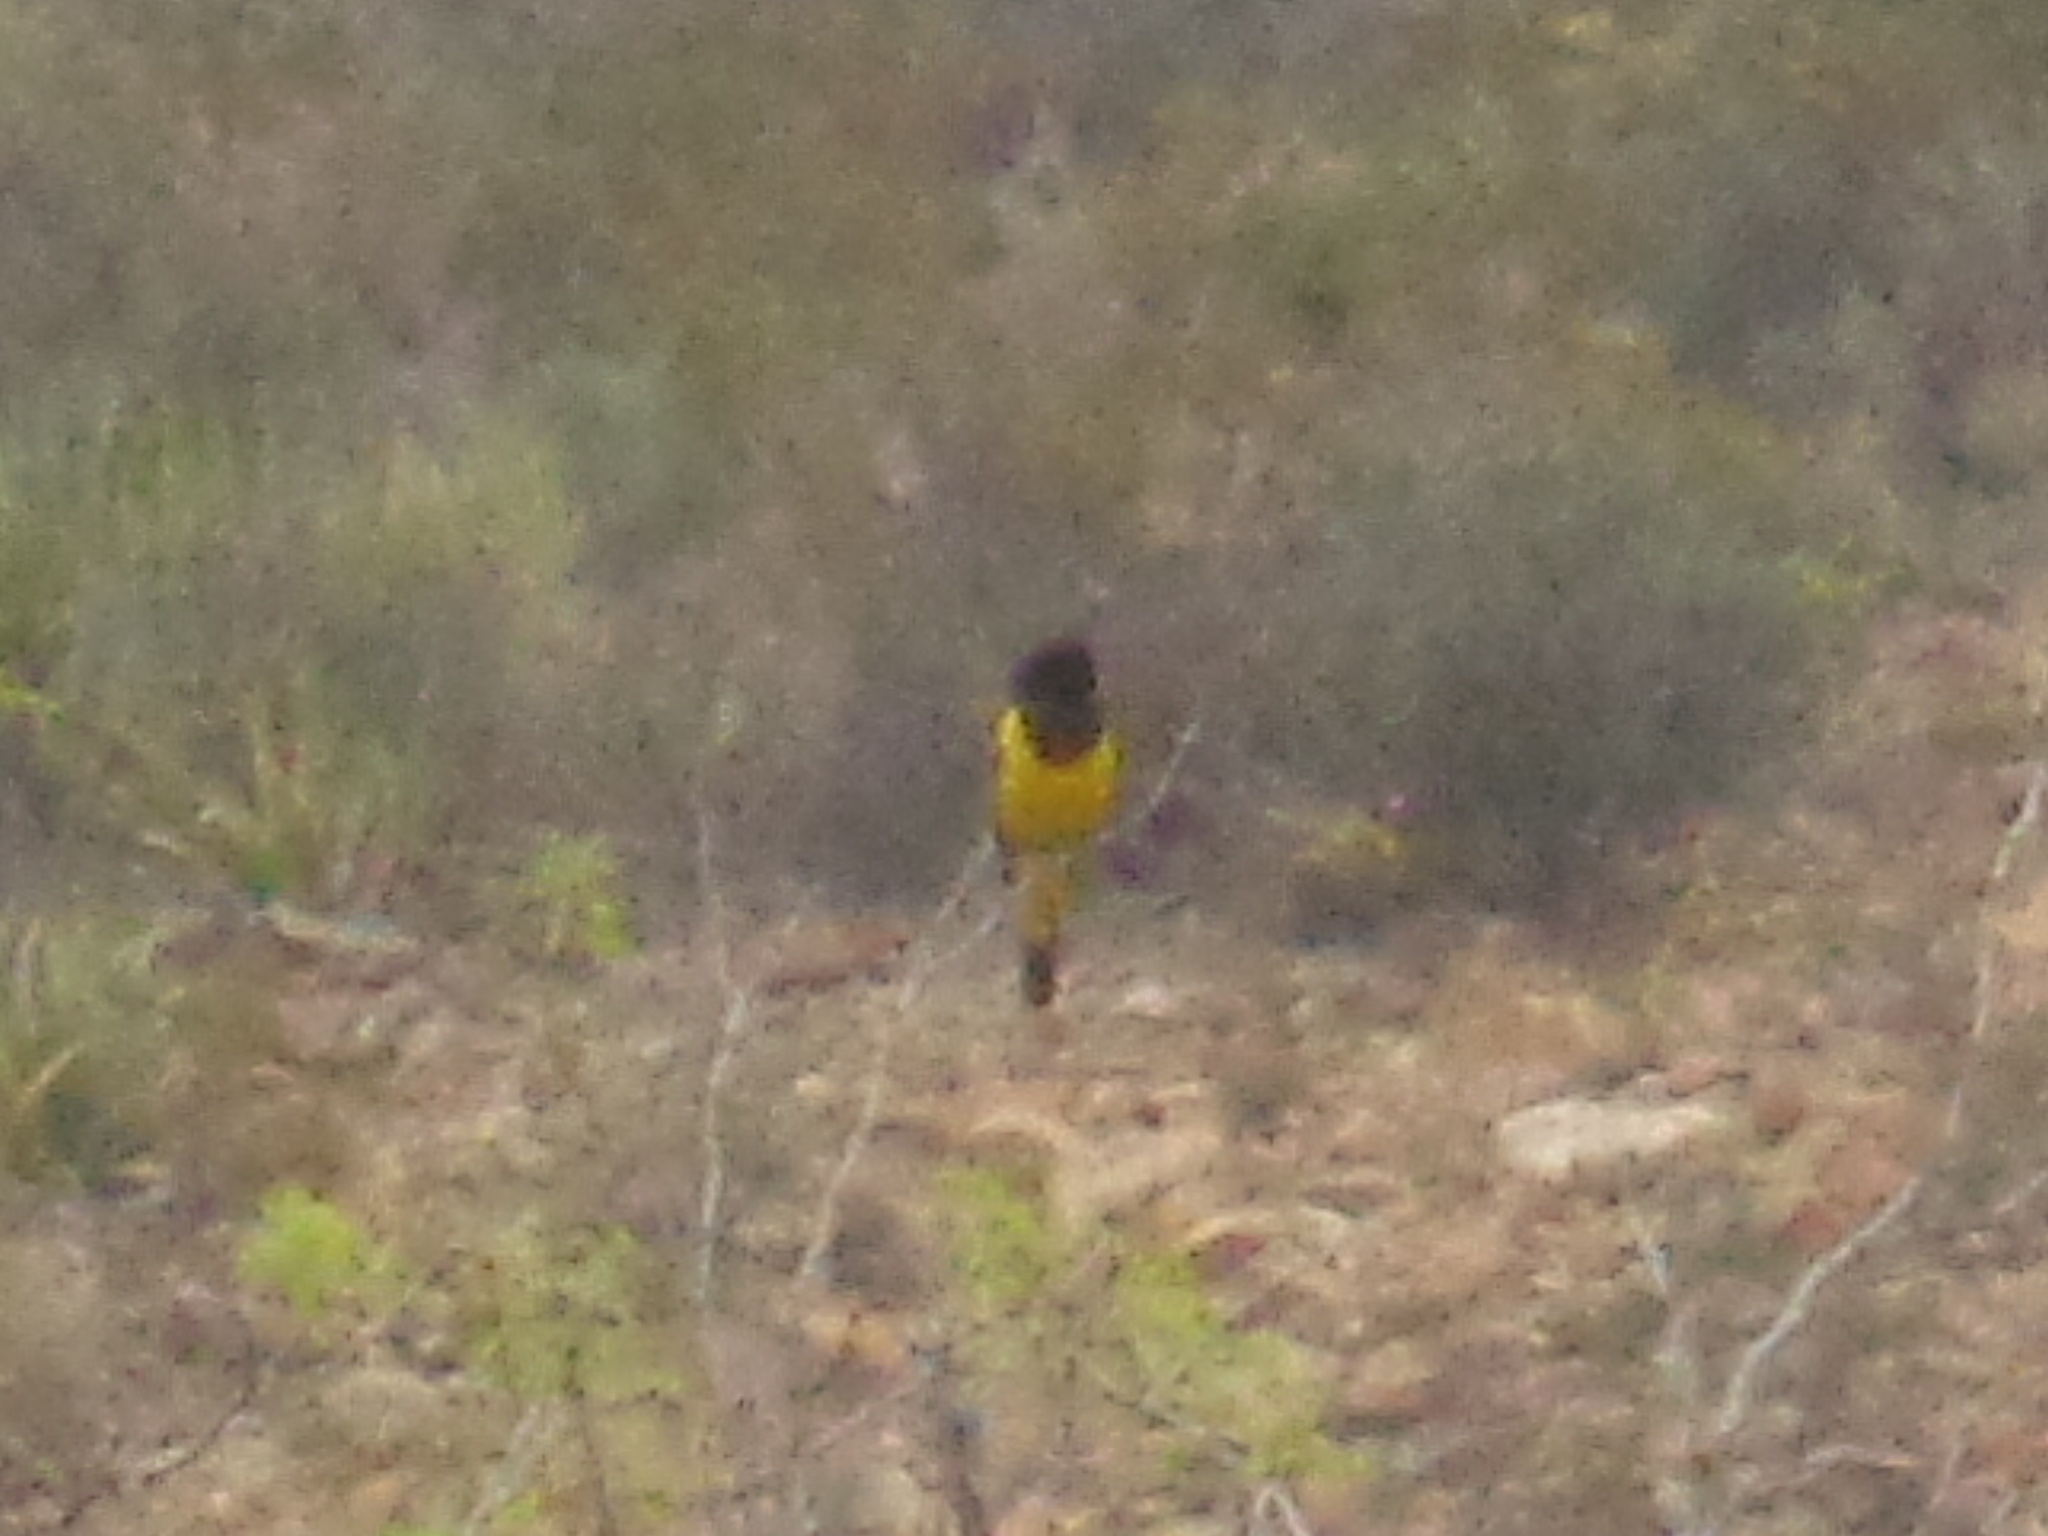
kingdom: Animalia
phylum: Chordata
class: Aves
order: Passeriformes
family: Icteridae
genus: Icterus
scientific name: Icterus parisorum
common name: Scott's oriole
